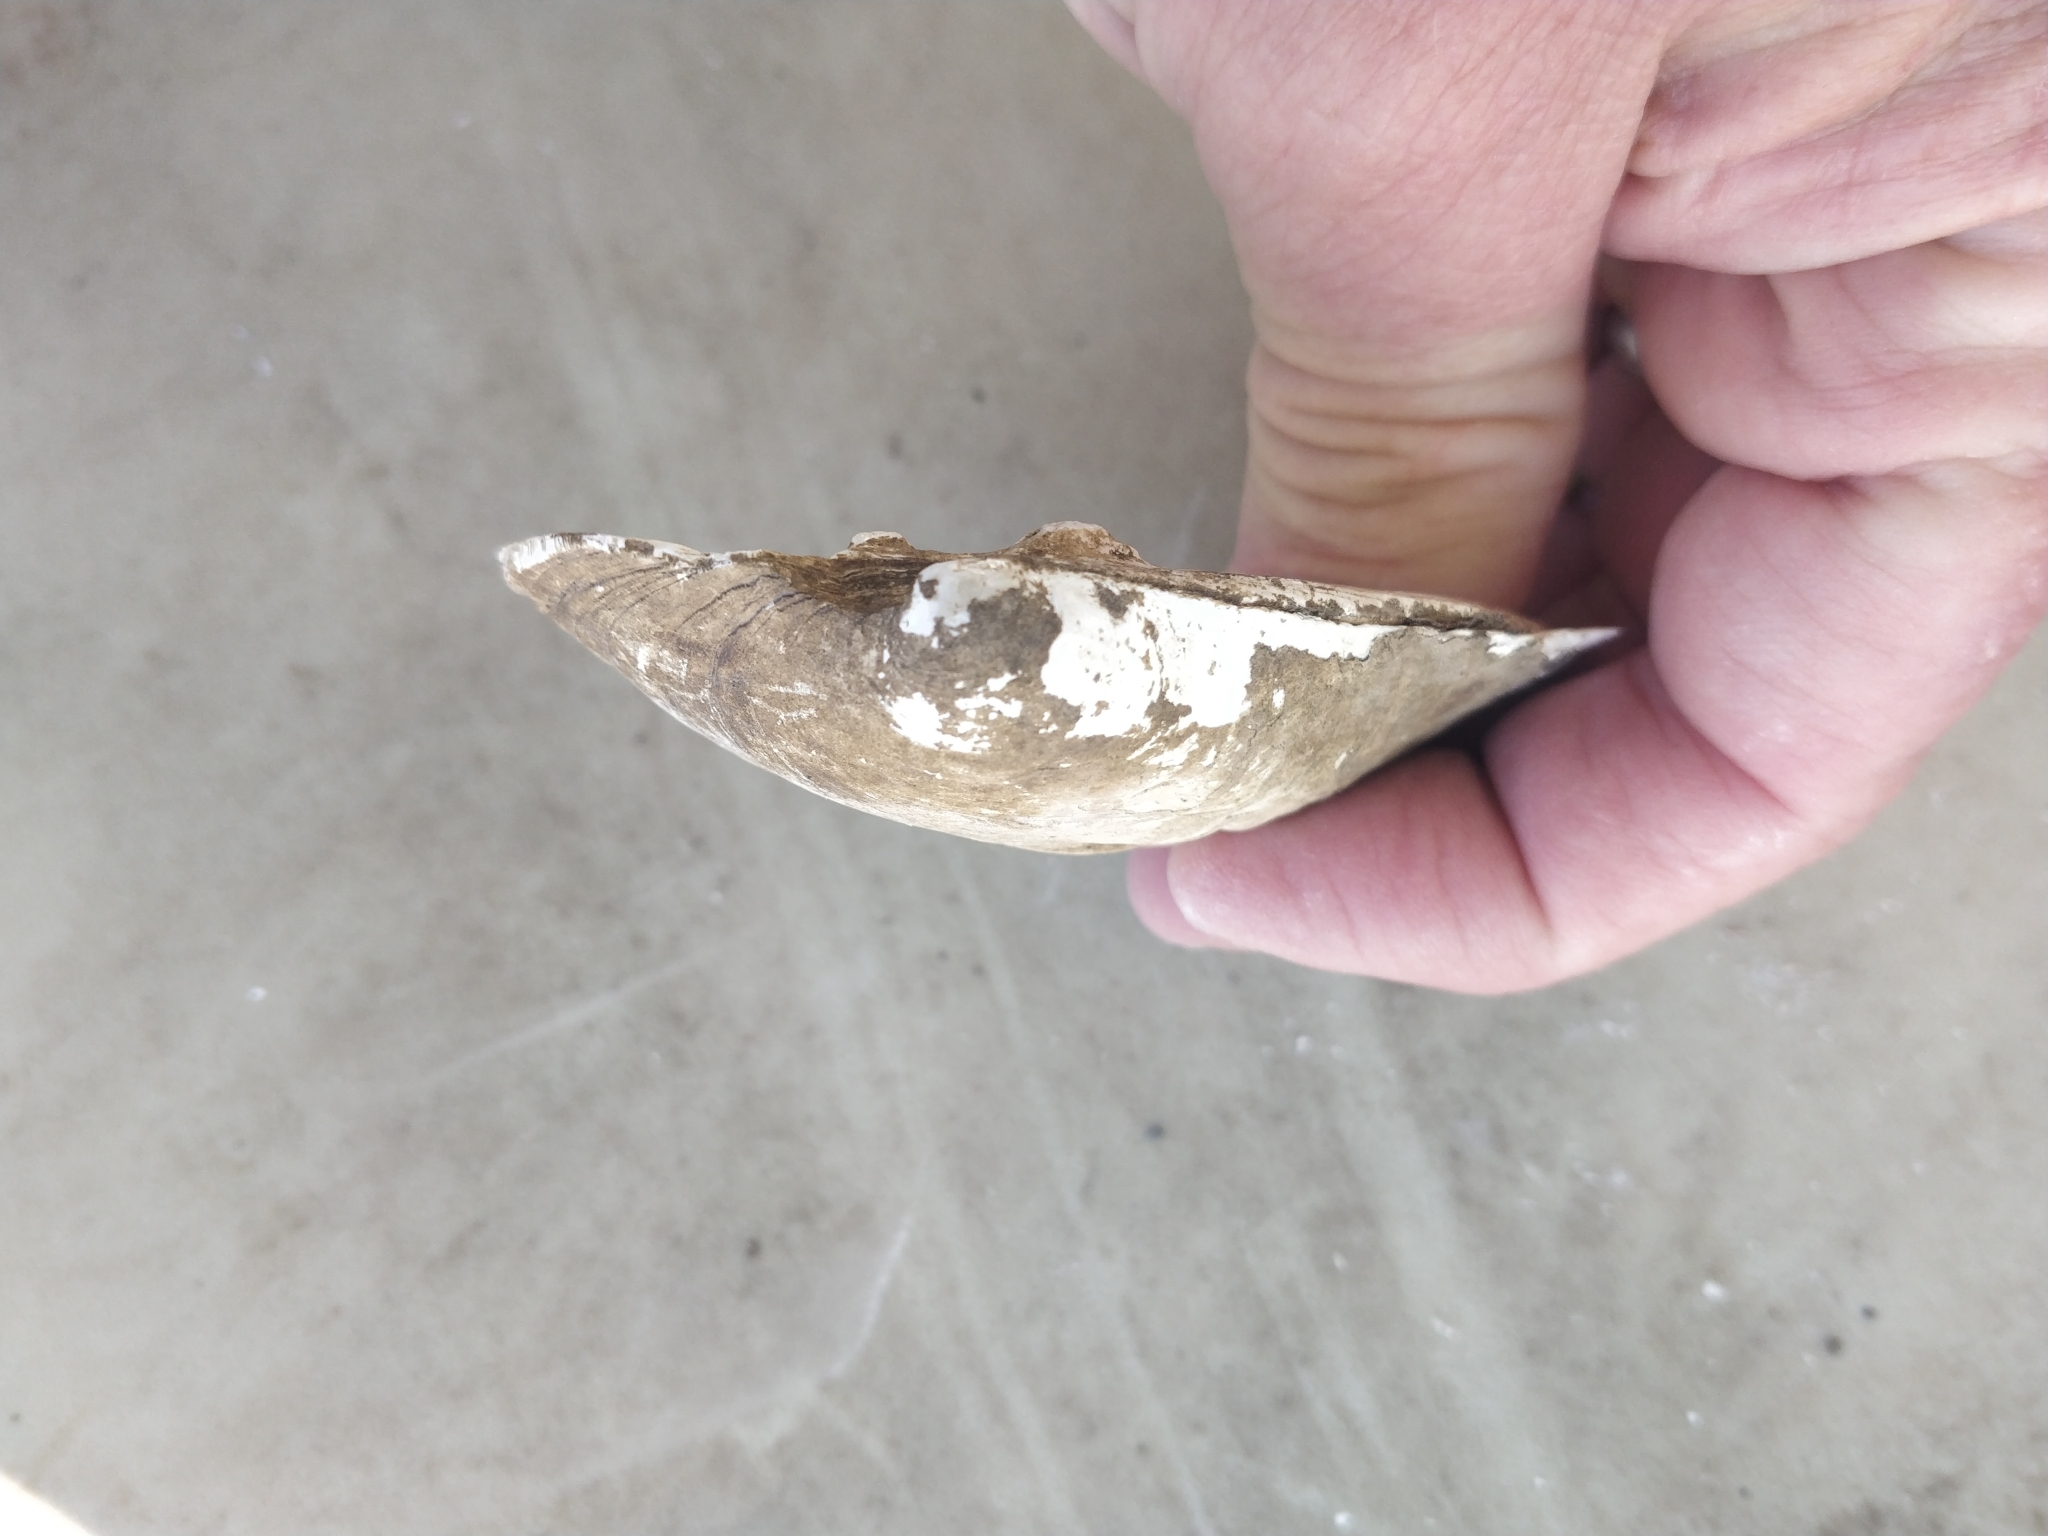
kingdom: Animalia
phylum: Mollusca
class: Bivalvia
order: Unionida
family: Unionidae
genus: Amblema
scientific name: Amblema plicata
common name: Threeridge
